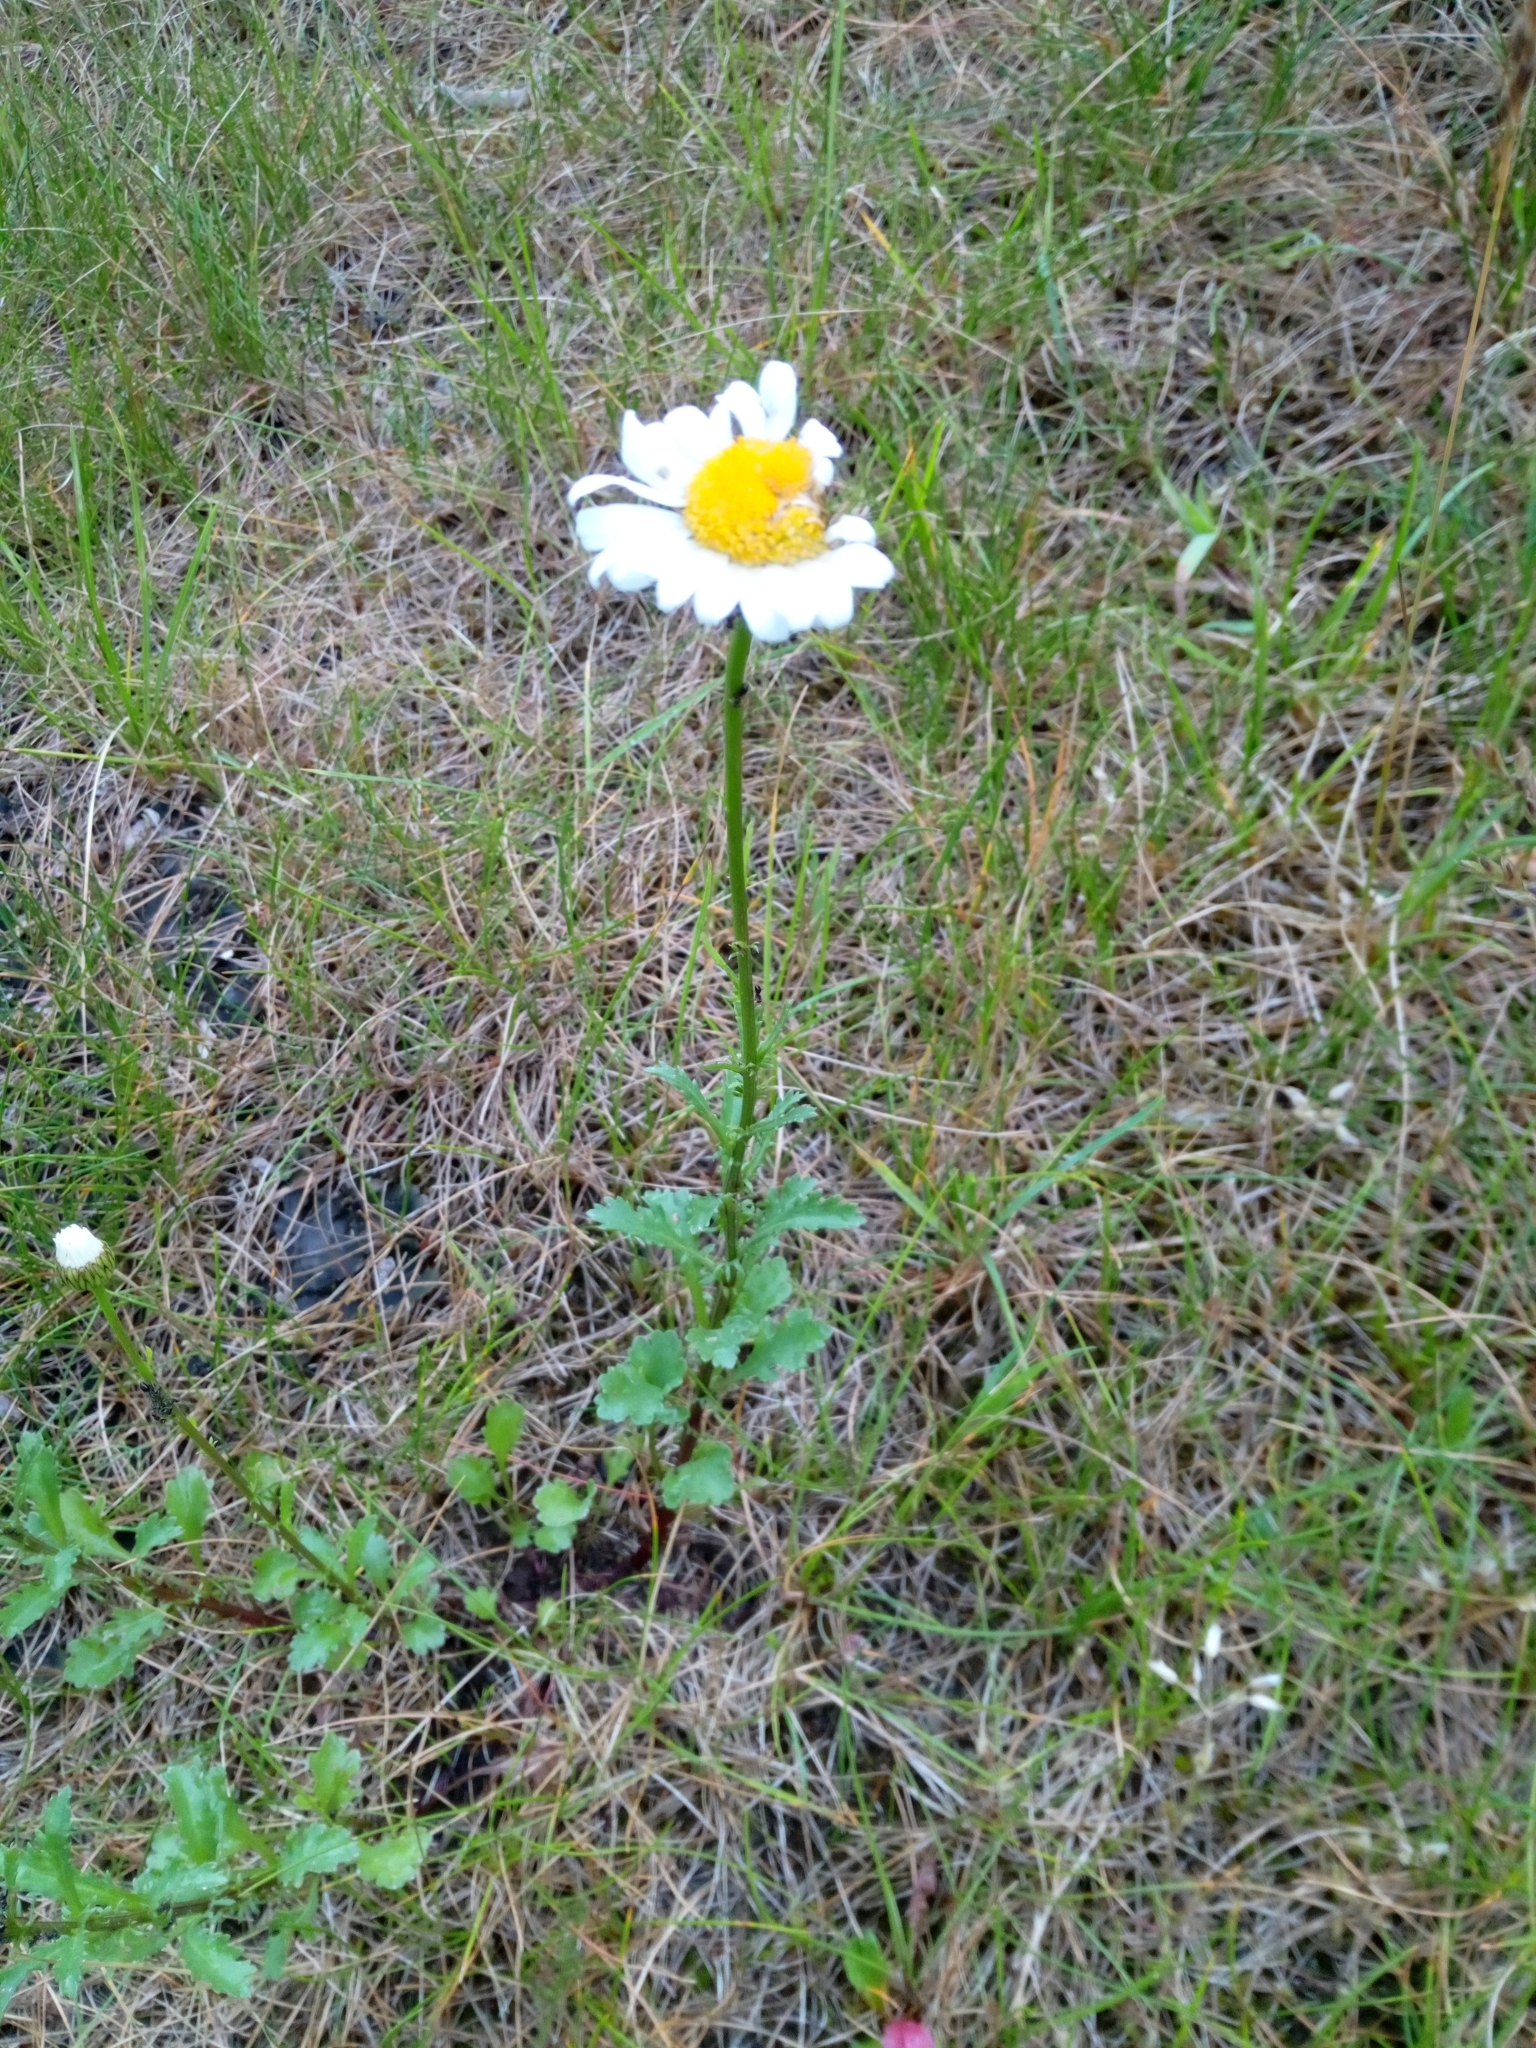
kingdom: Plantae
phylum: Tracheophyta
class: Magnoliopsida
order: Asterales
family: Asteraceae
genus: Leucanthemum
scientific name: Leucanthemum vulgare
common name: Oxeye daisy
